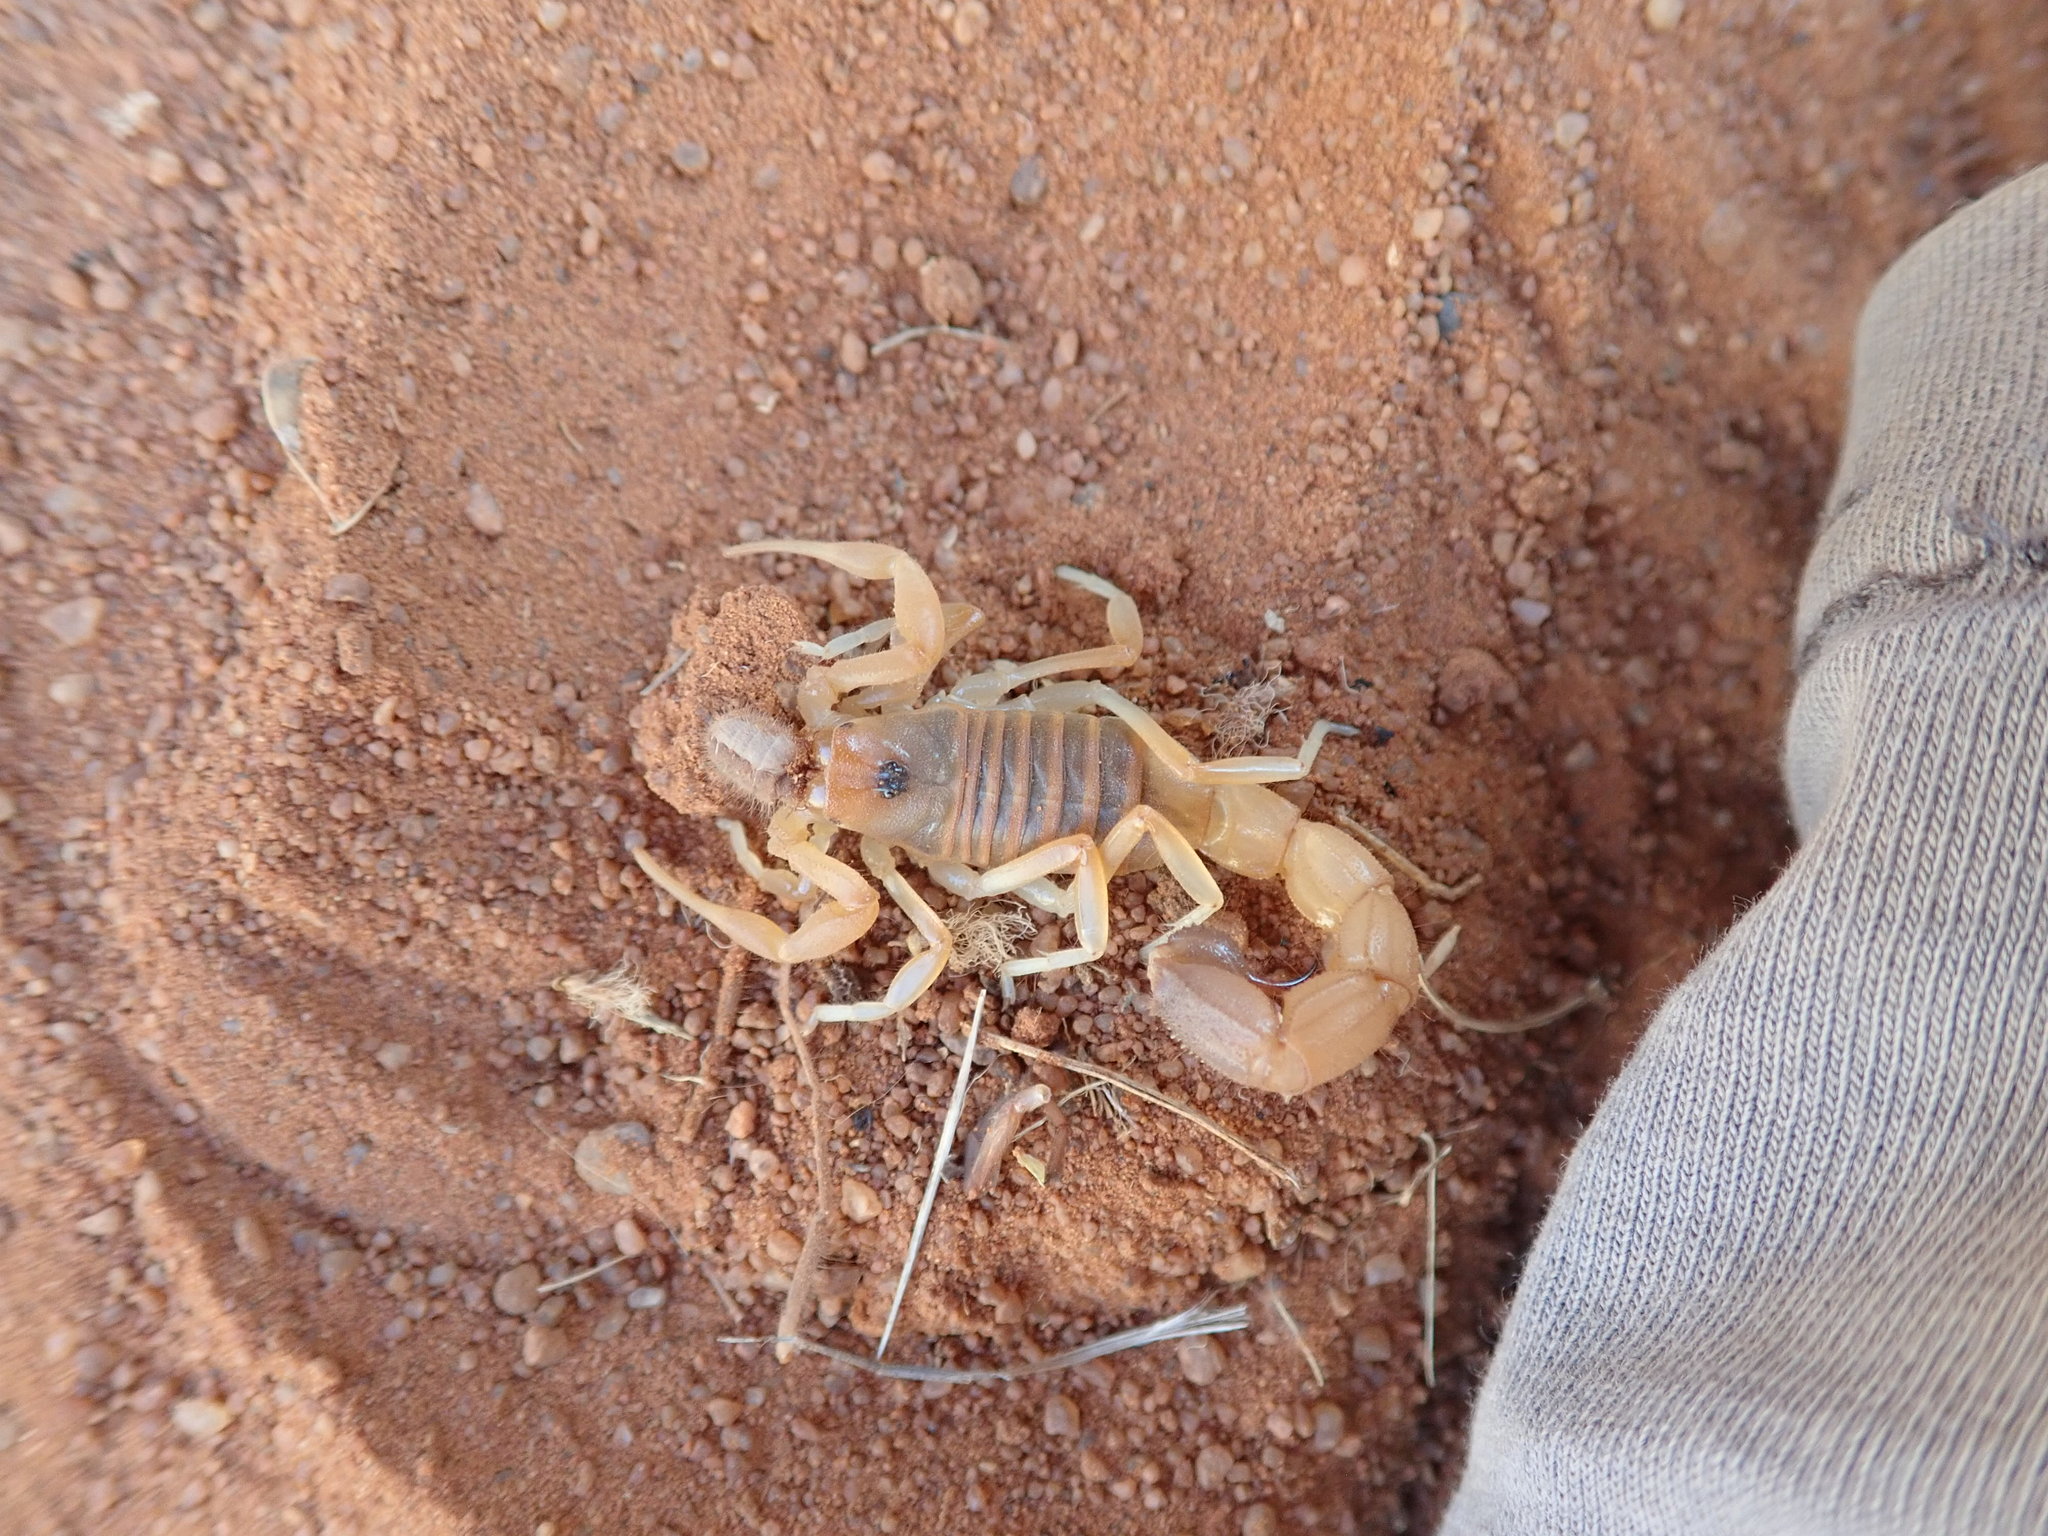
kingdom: Animalia
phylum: Arthropoda
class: Arachnida
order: Scorpiones
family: Buthidae
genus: Parabuthus
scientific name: Parabuthus raudus
